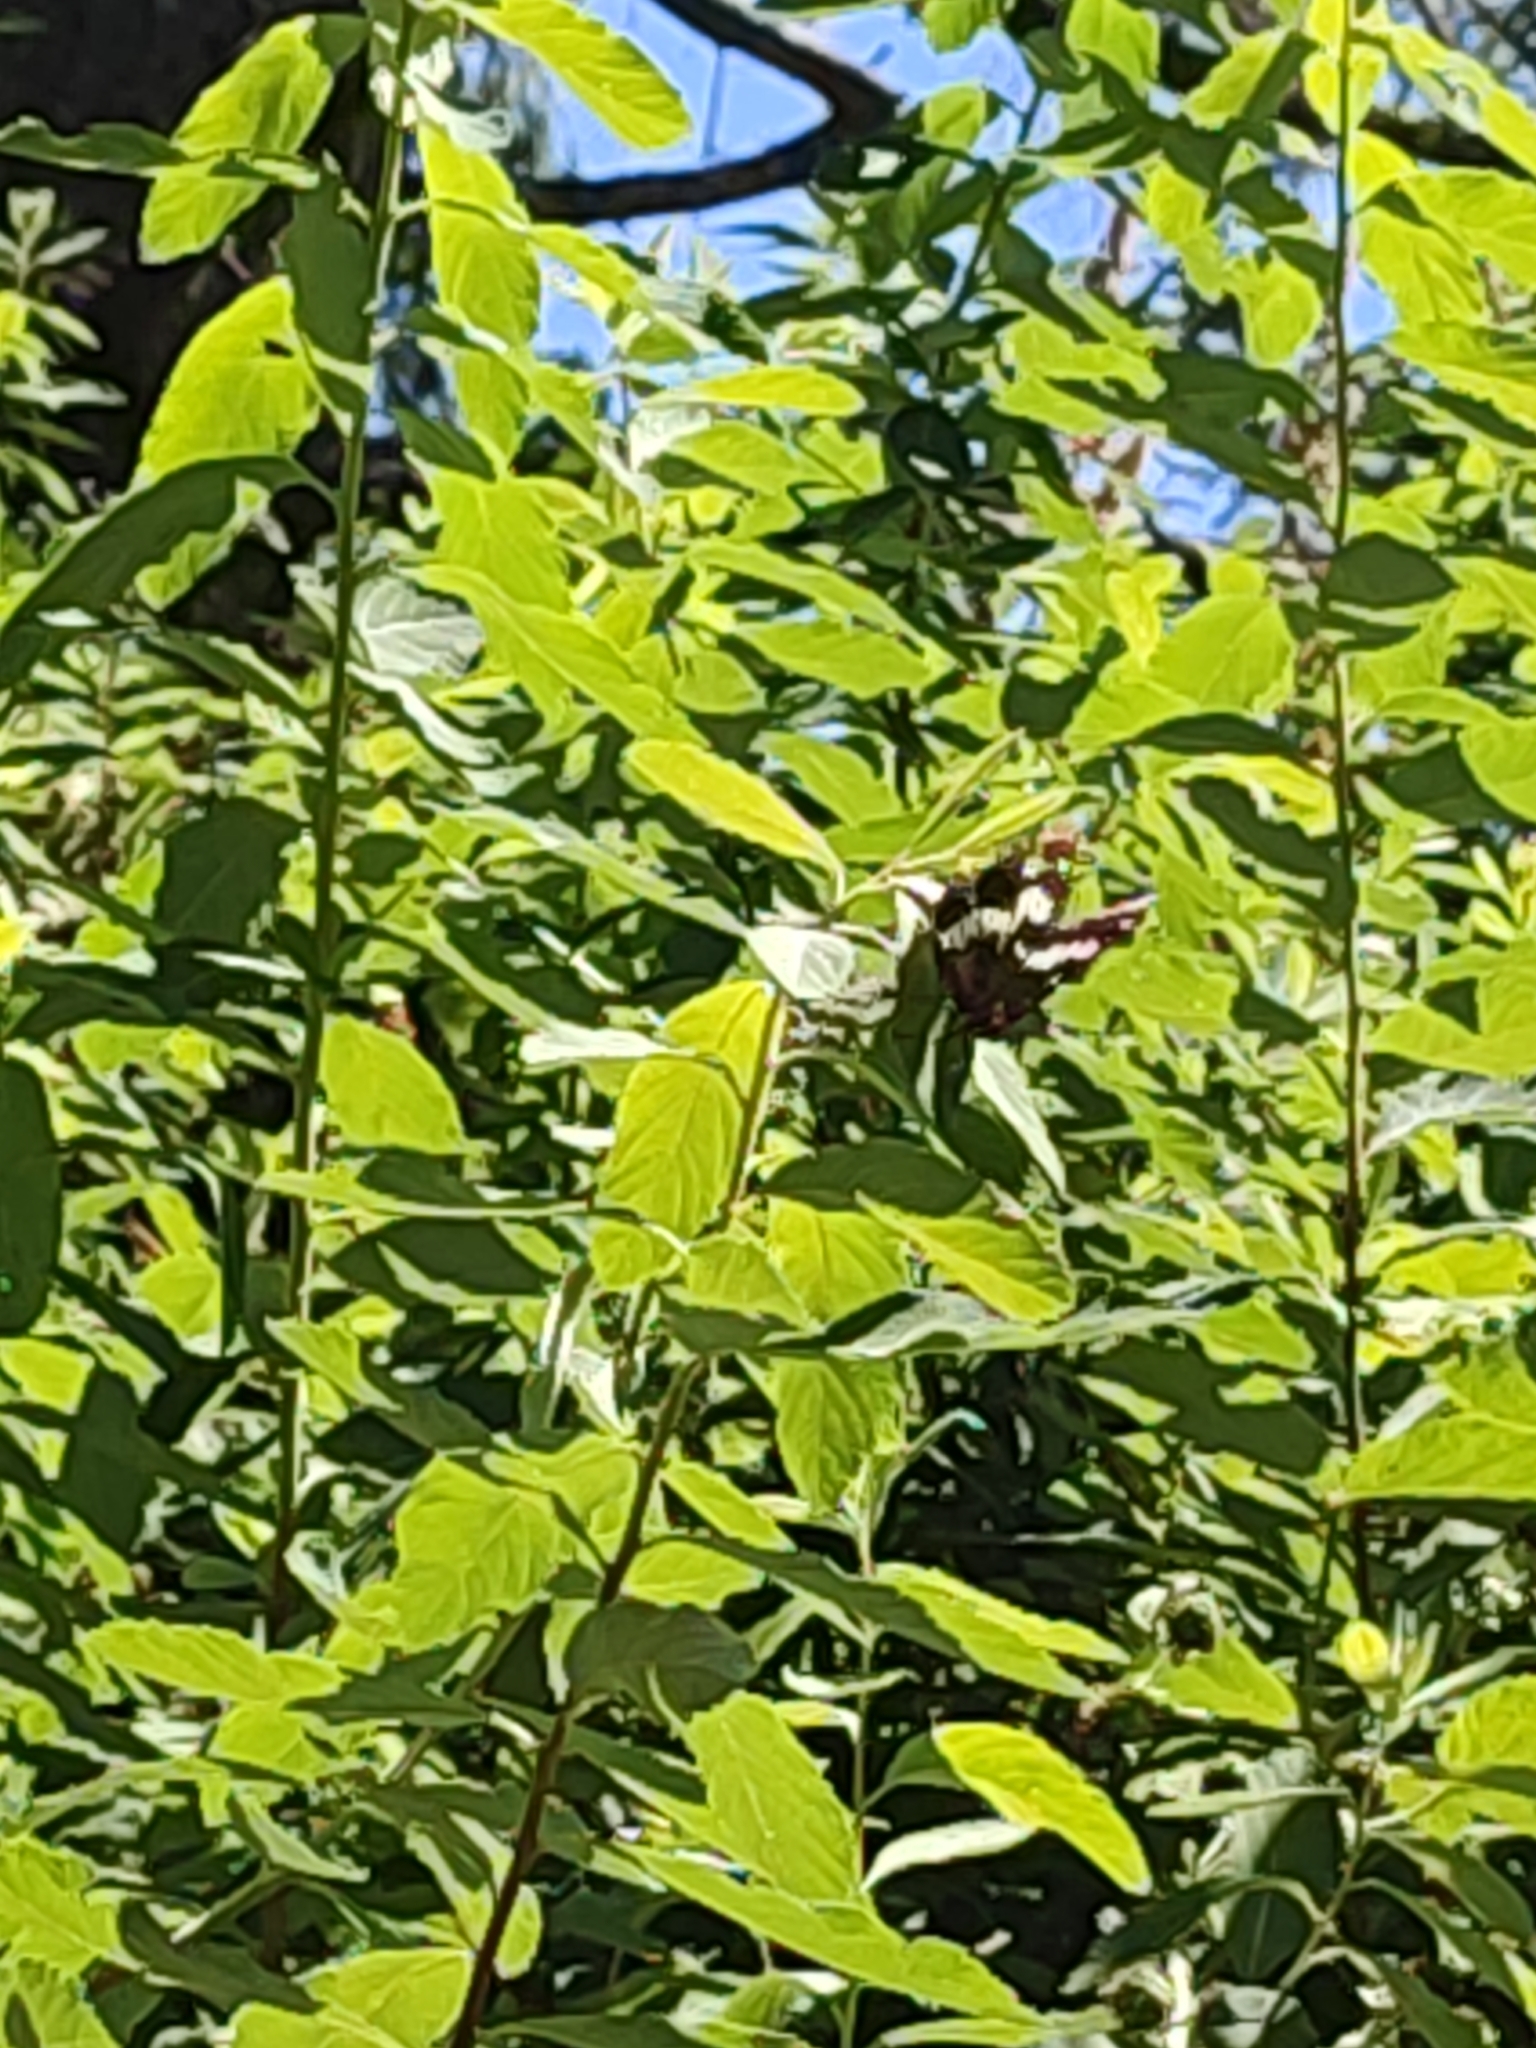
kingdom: Animalia
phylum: Arthropoda
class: Insecta
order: Lepidoptera
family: Nymphalidae
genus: Limenitis
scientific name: Limenitis lorquini
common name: Lorquin's admiral
